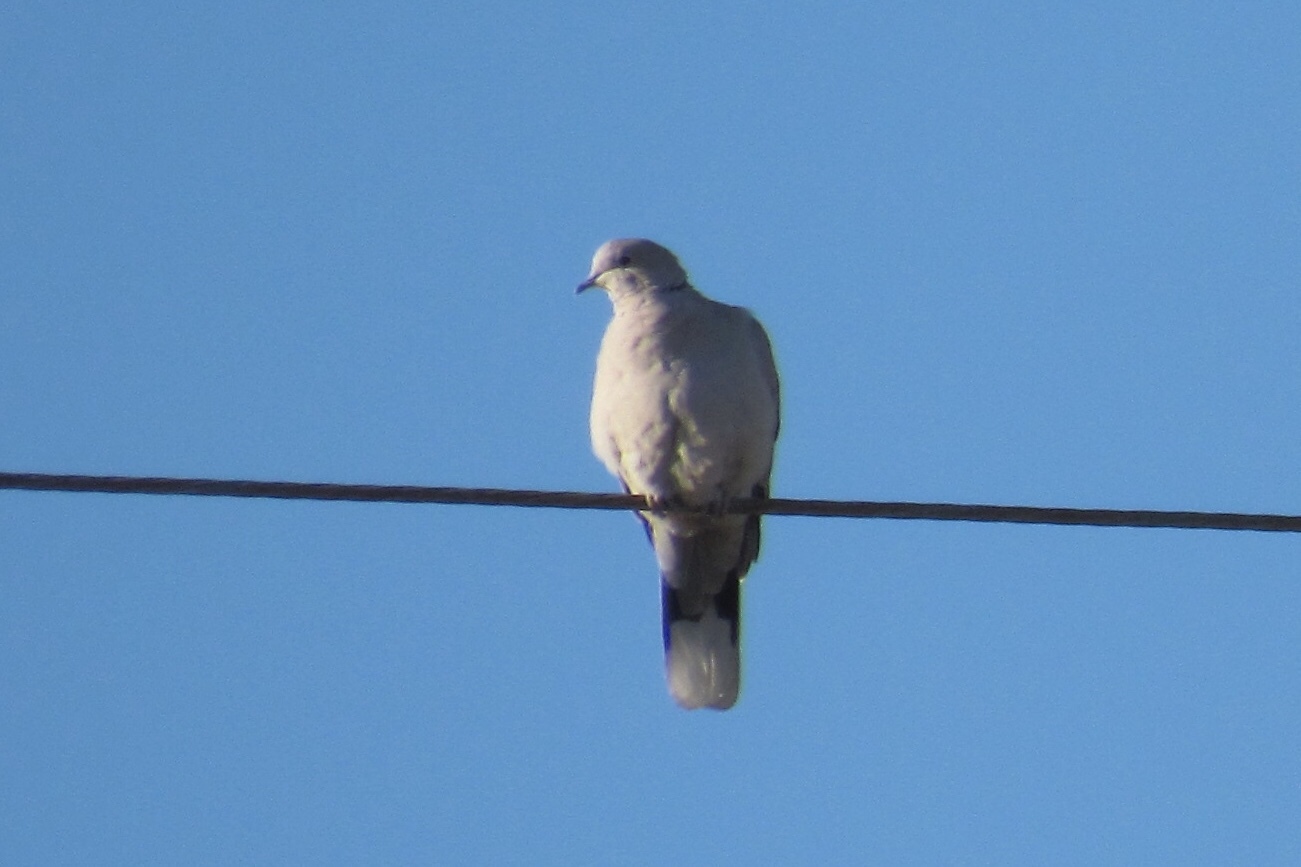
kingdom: Animalia
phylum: Chordata
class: Aves
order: Columbiformes
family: Columbidae
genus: Streptopelia
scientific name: Streptopelia decaocto
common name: Eurasian collared dove
